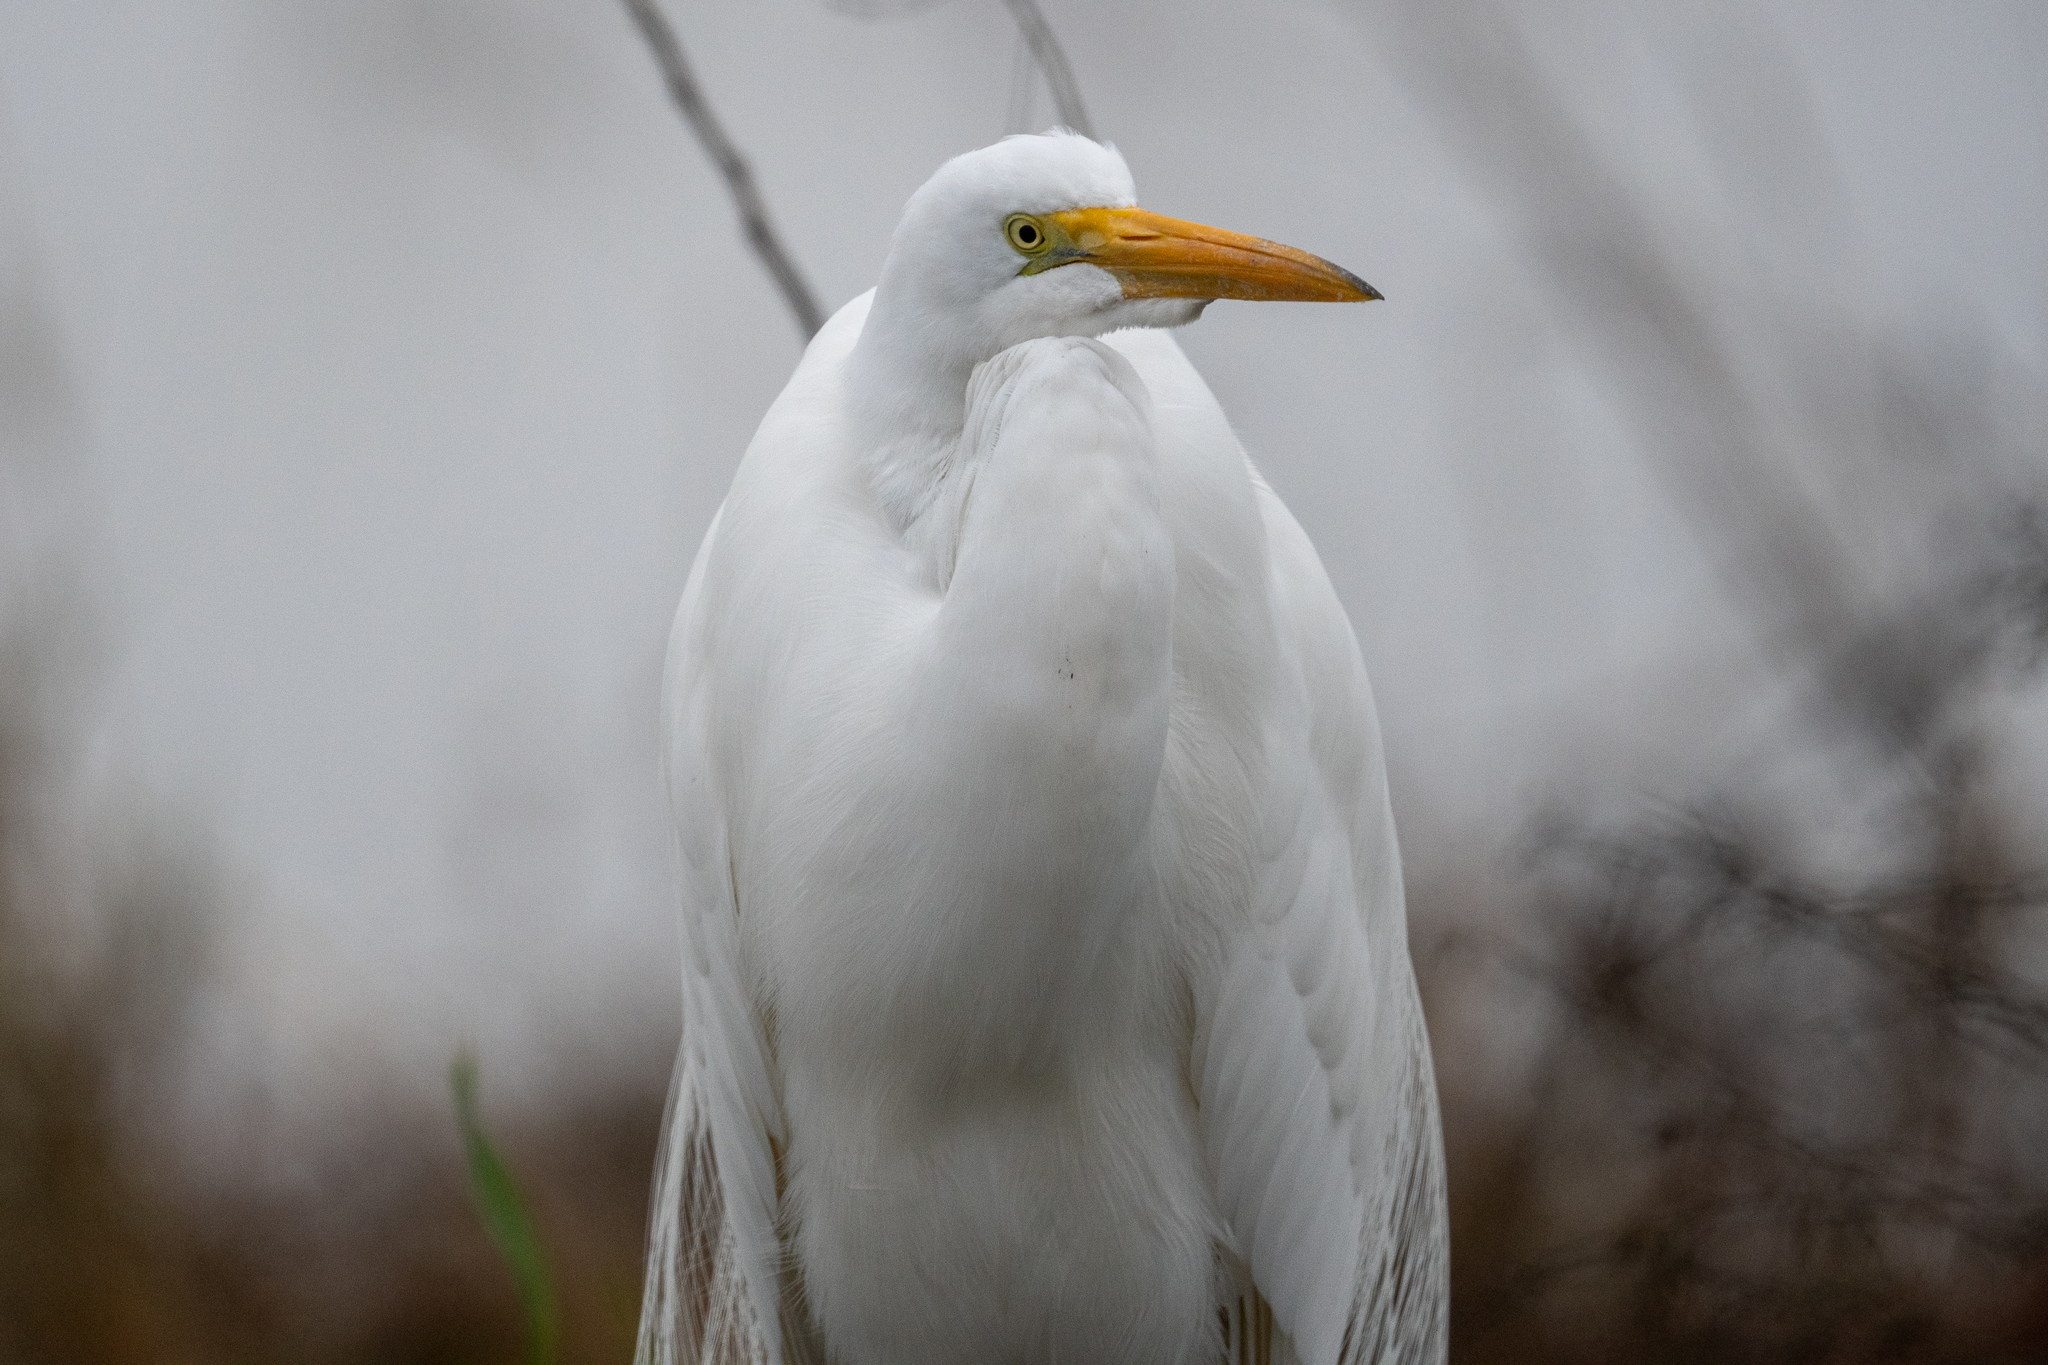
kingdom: Animalia
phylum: Chordata
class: Aves
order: Pelecaniformes
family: Ardeidae
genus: Ardea
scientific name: Ardea alba
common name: Great egret
